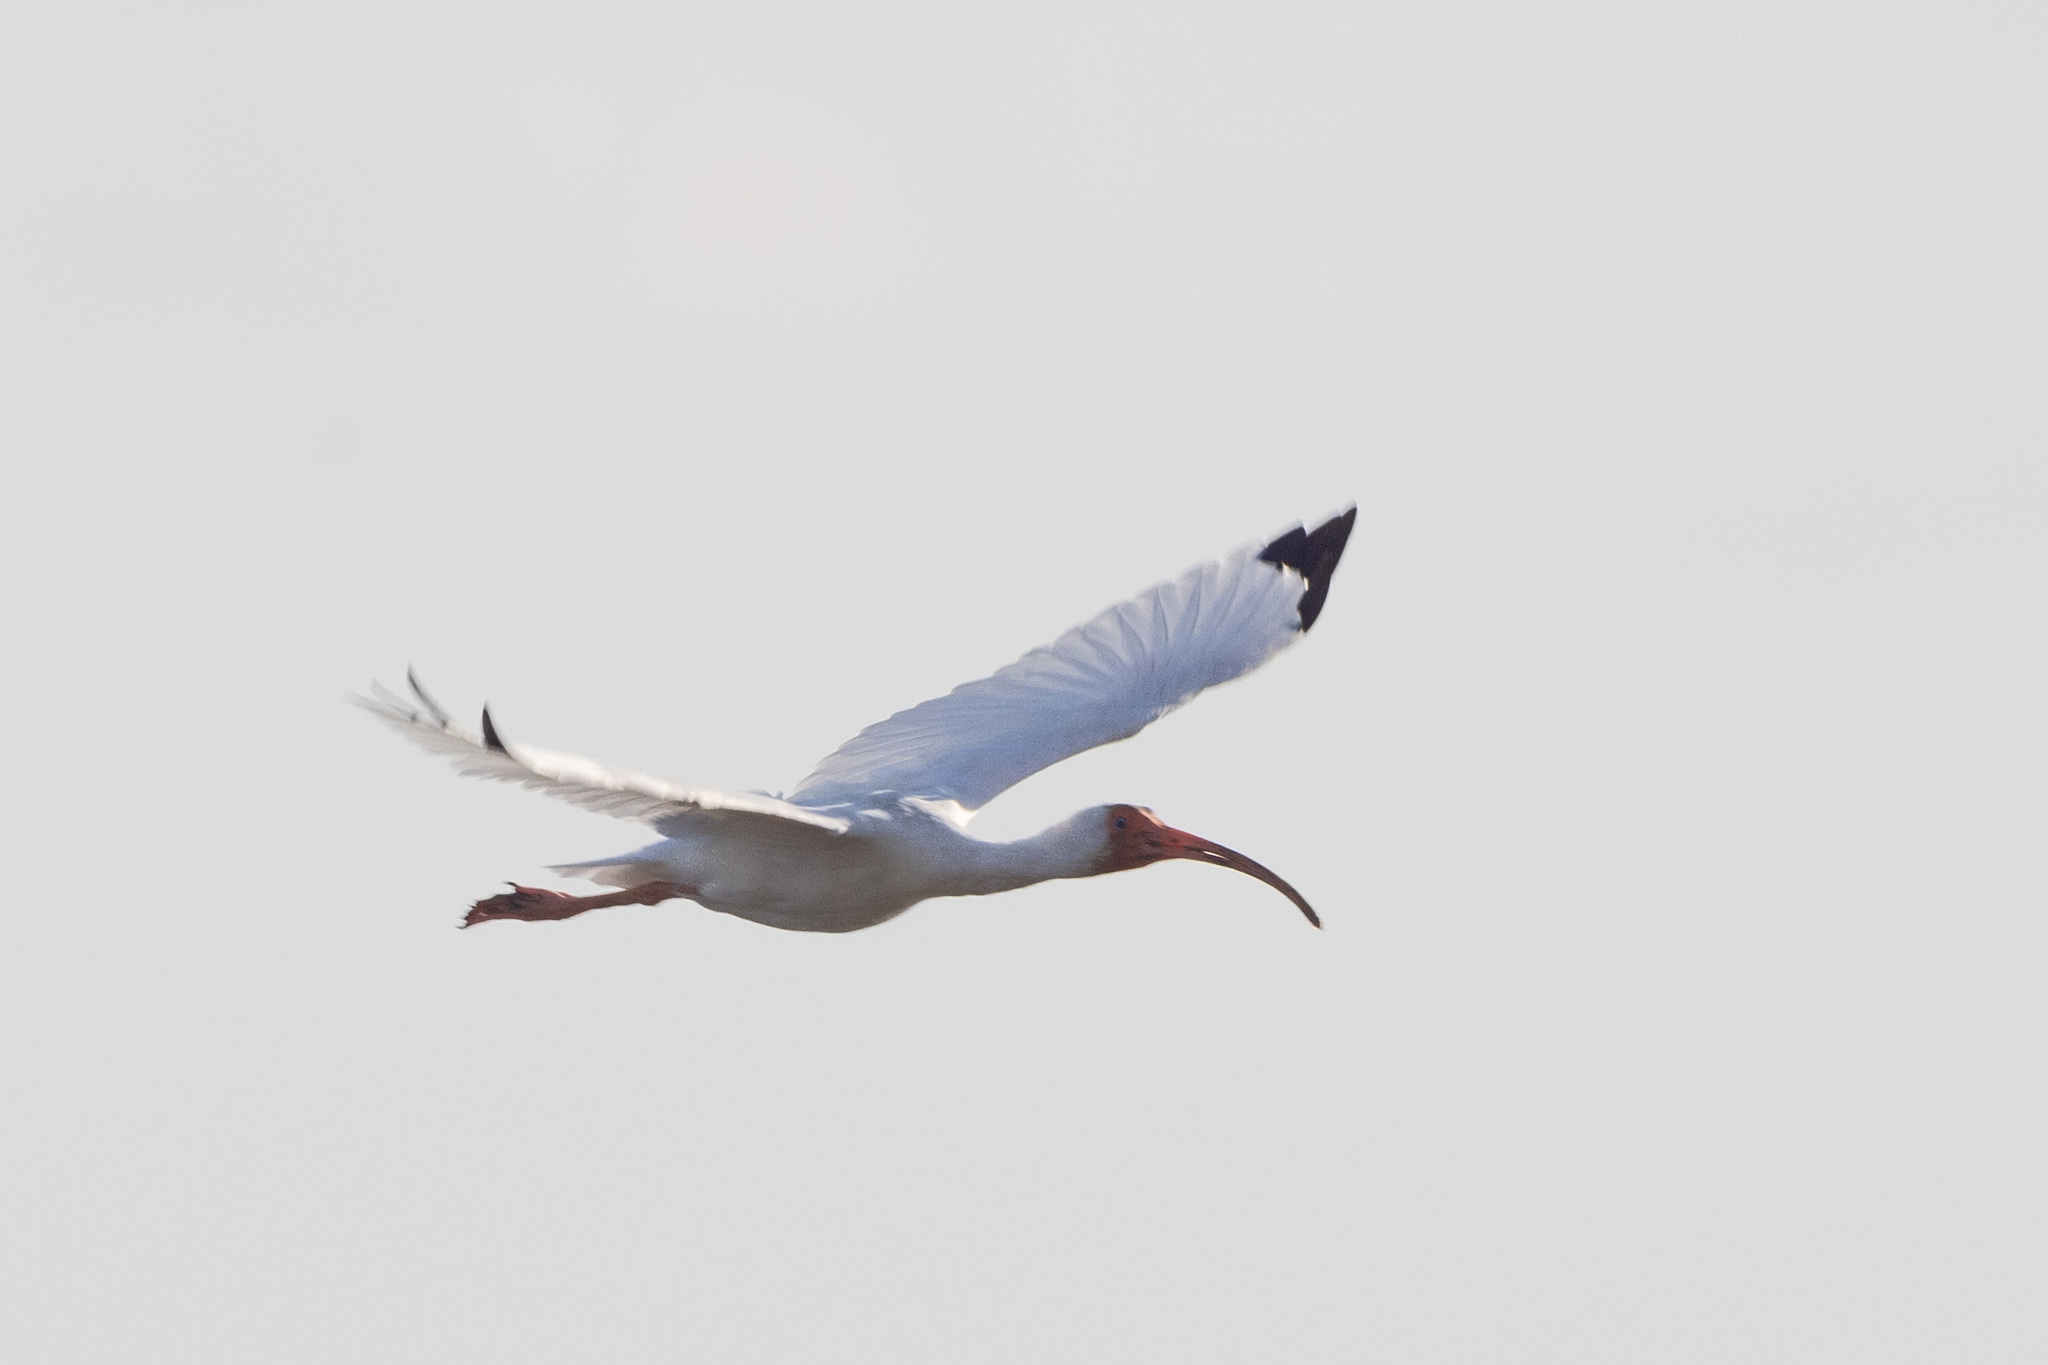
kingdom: Animalia
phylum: Chordata
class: Aves
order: Pelecaniformes
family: Threskiornithidae
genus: Eudocimus
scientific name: Eudocimus albus
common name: White ibis
